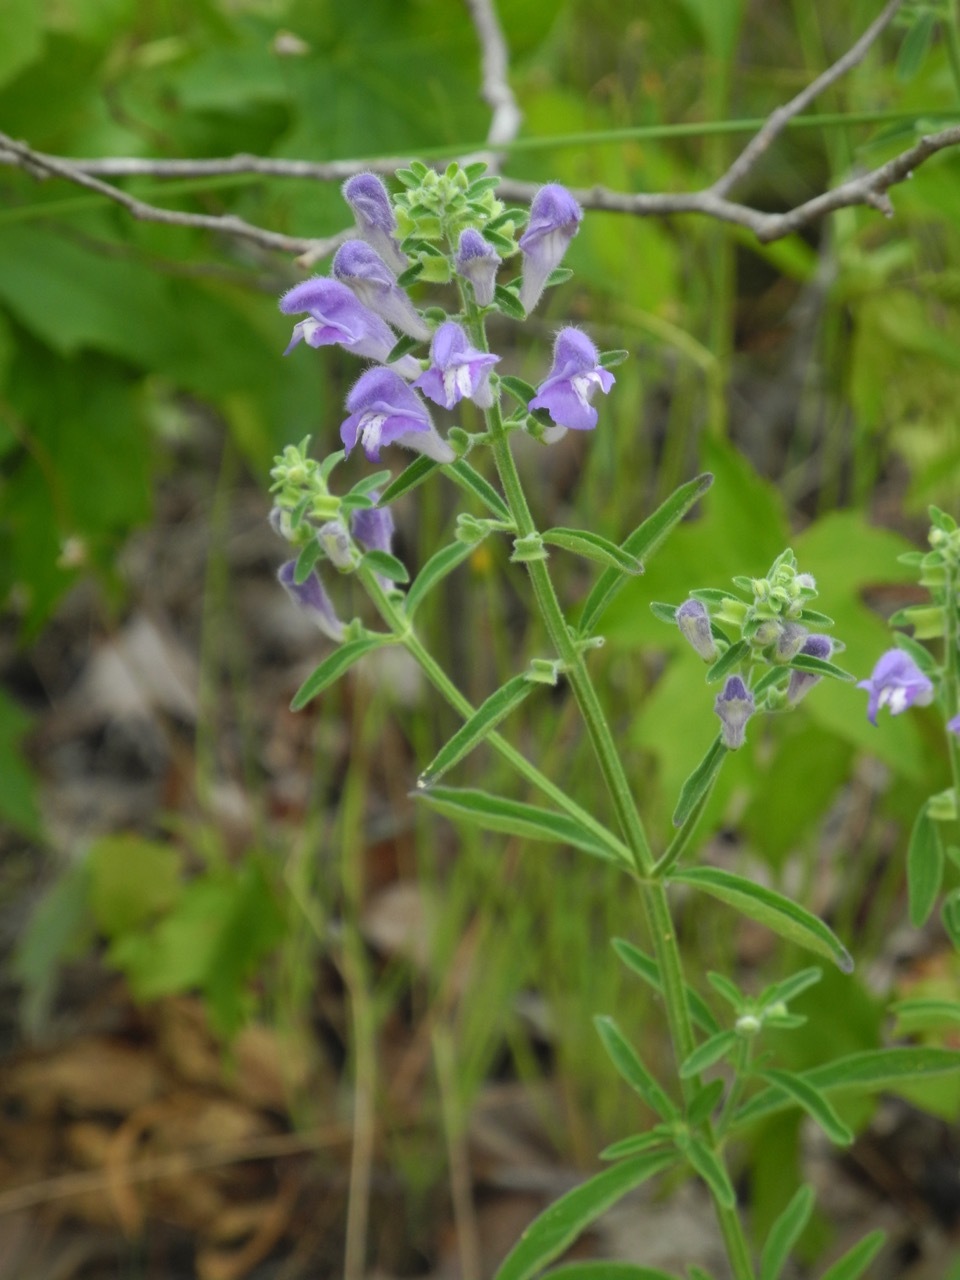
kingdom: Plantae
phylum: Tracheophyta
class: Magnoliopsida
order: Lamiales
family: Lamiaceae
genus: Scutellaria
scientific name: Scutellaria integrifolia
